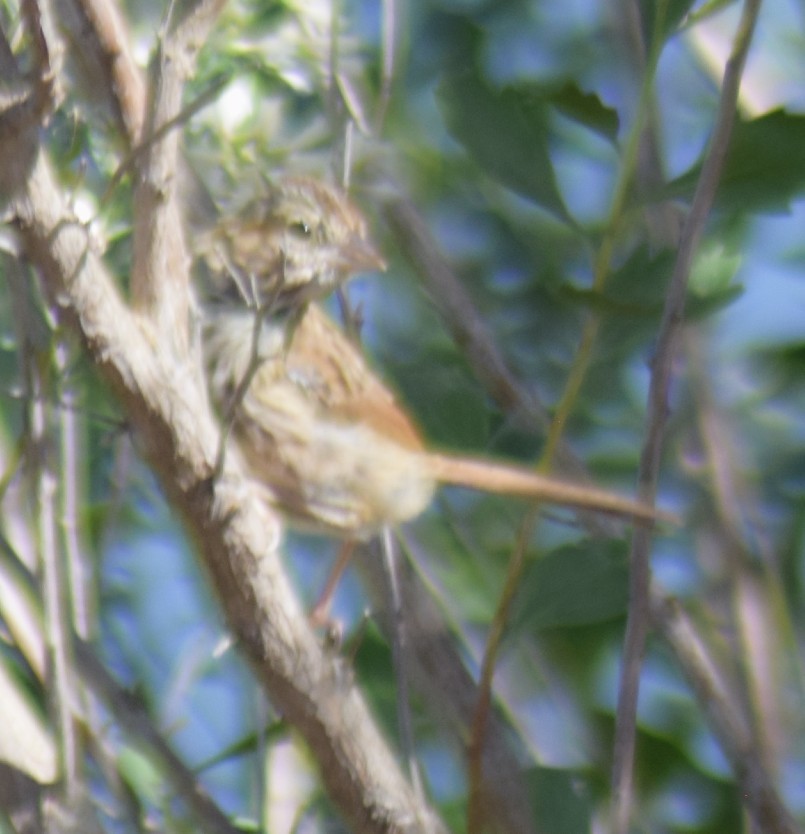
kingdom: Animalia
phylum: Chordata
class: Aves
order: Passeriformes
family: Passerellidae
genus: Melospiza
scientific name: Melospiza melodia
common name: Song sparrow
